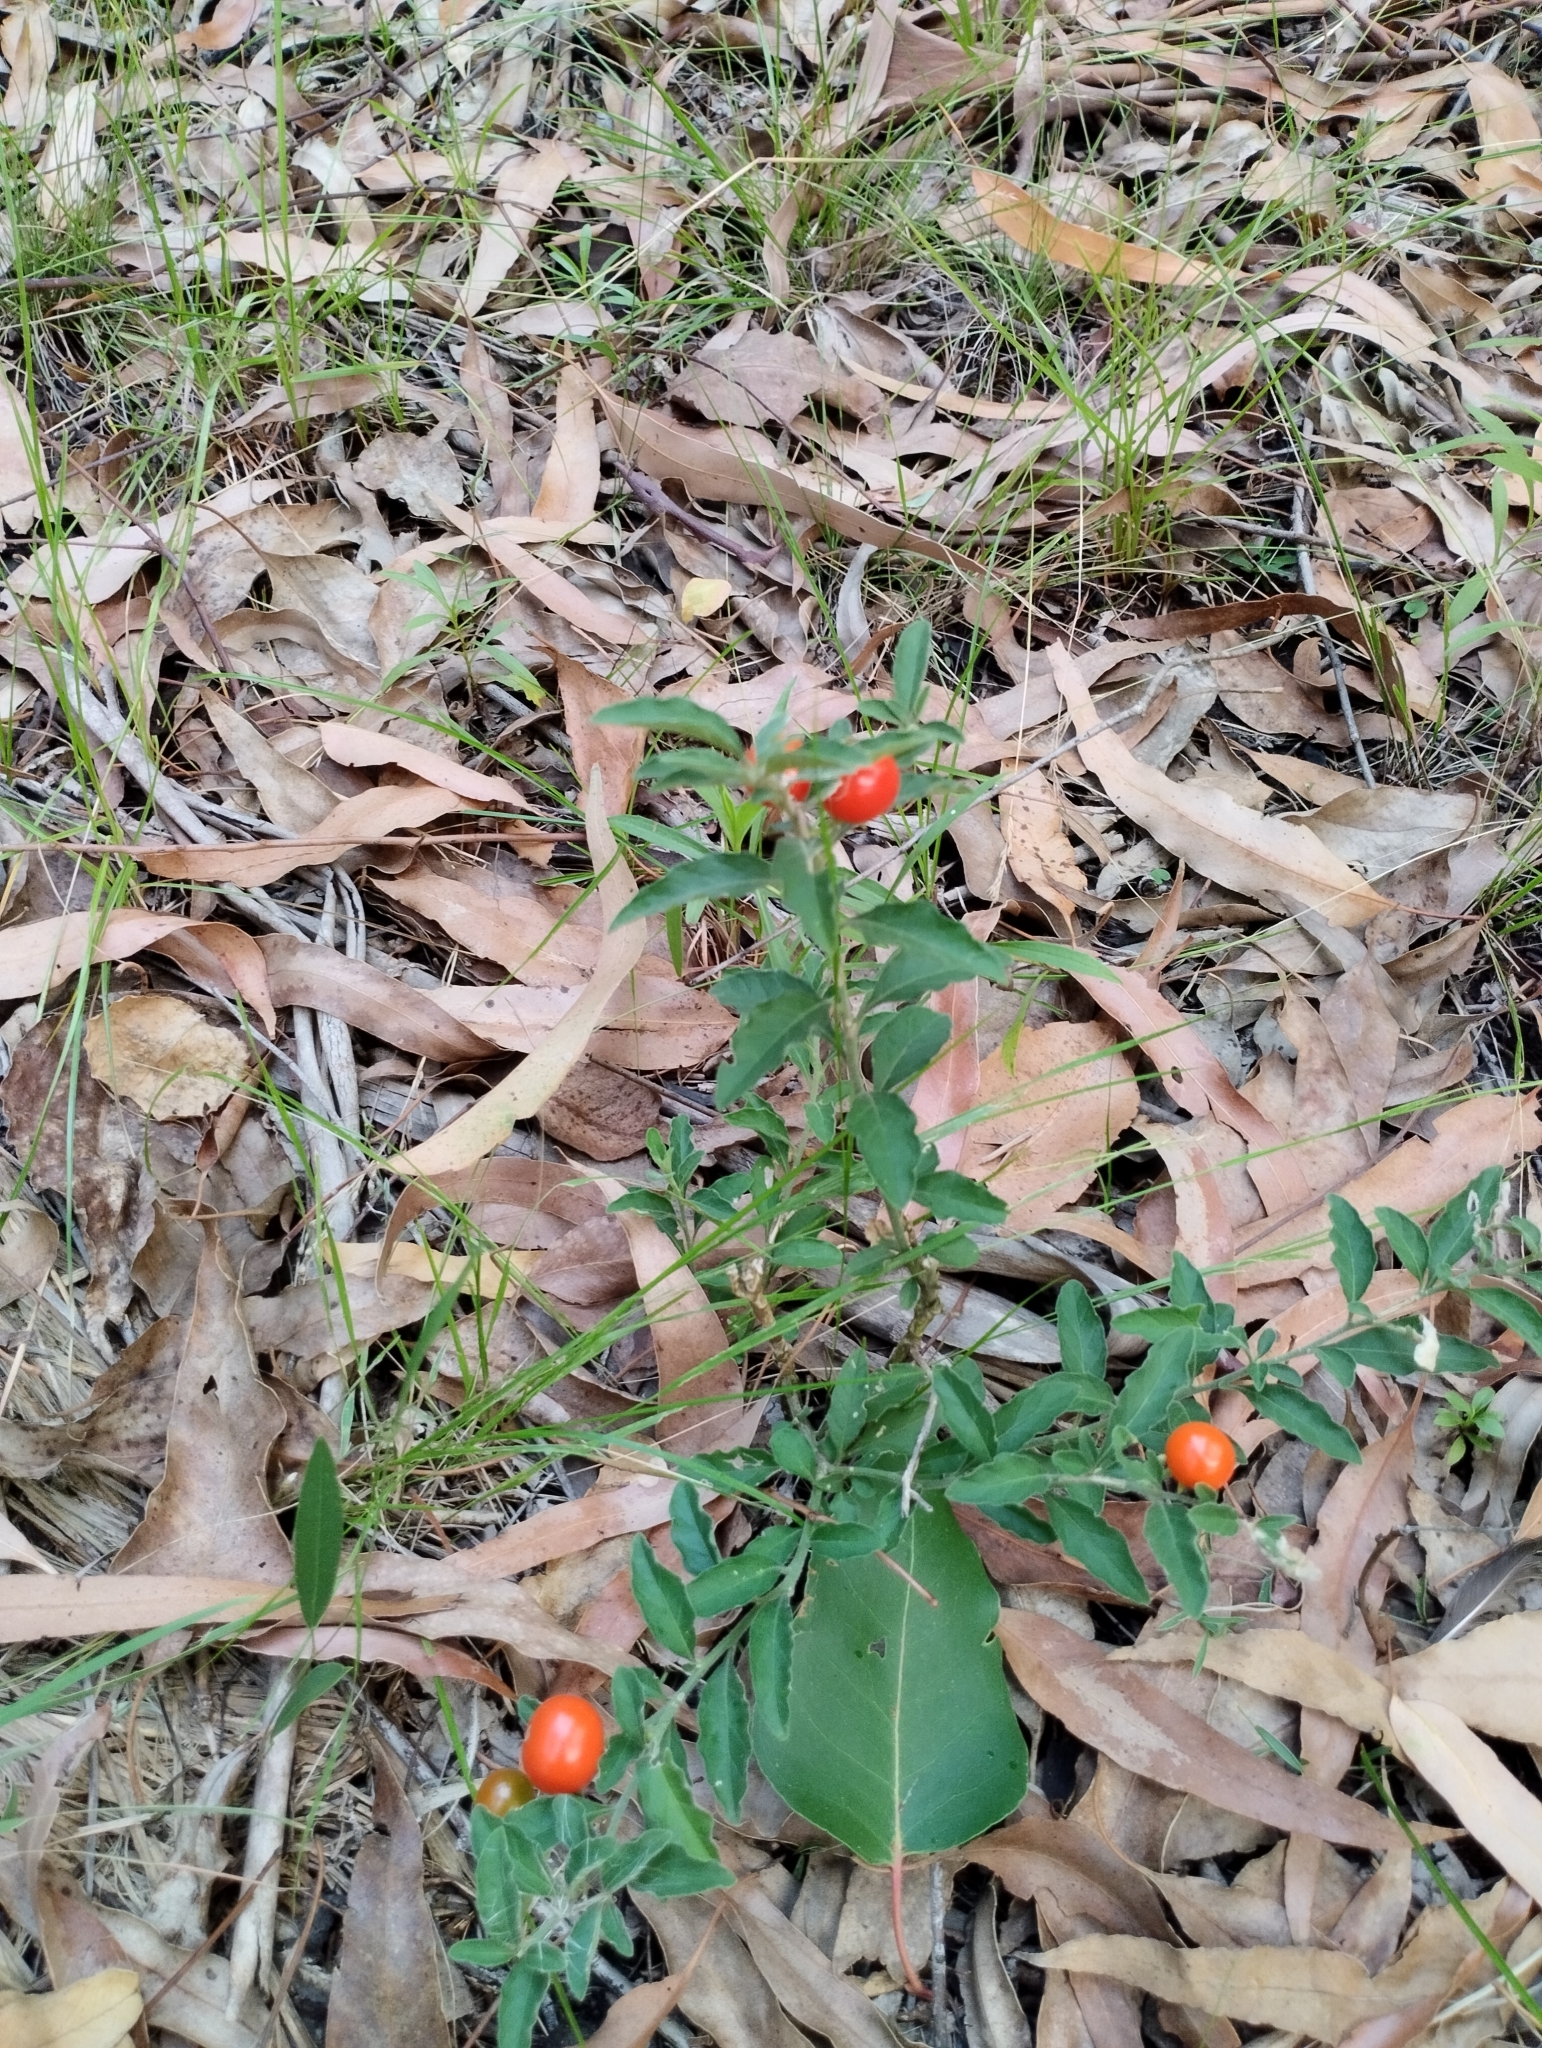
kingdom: Plantae
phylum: Tracheophyta
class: Magnoliopsida
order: Solanales
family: Solanaceae
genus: Solanum
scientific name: Solanum pseudocapsicum
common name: Jerusalem cherry
